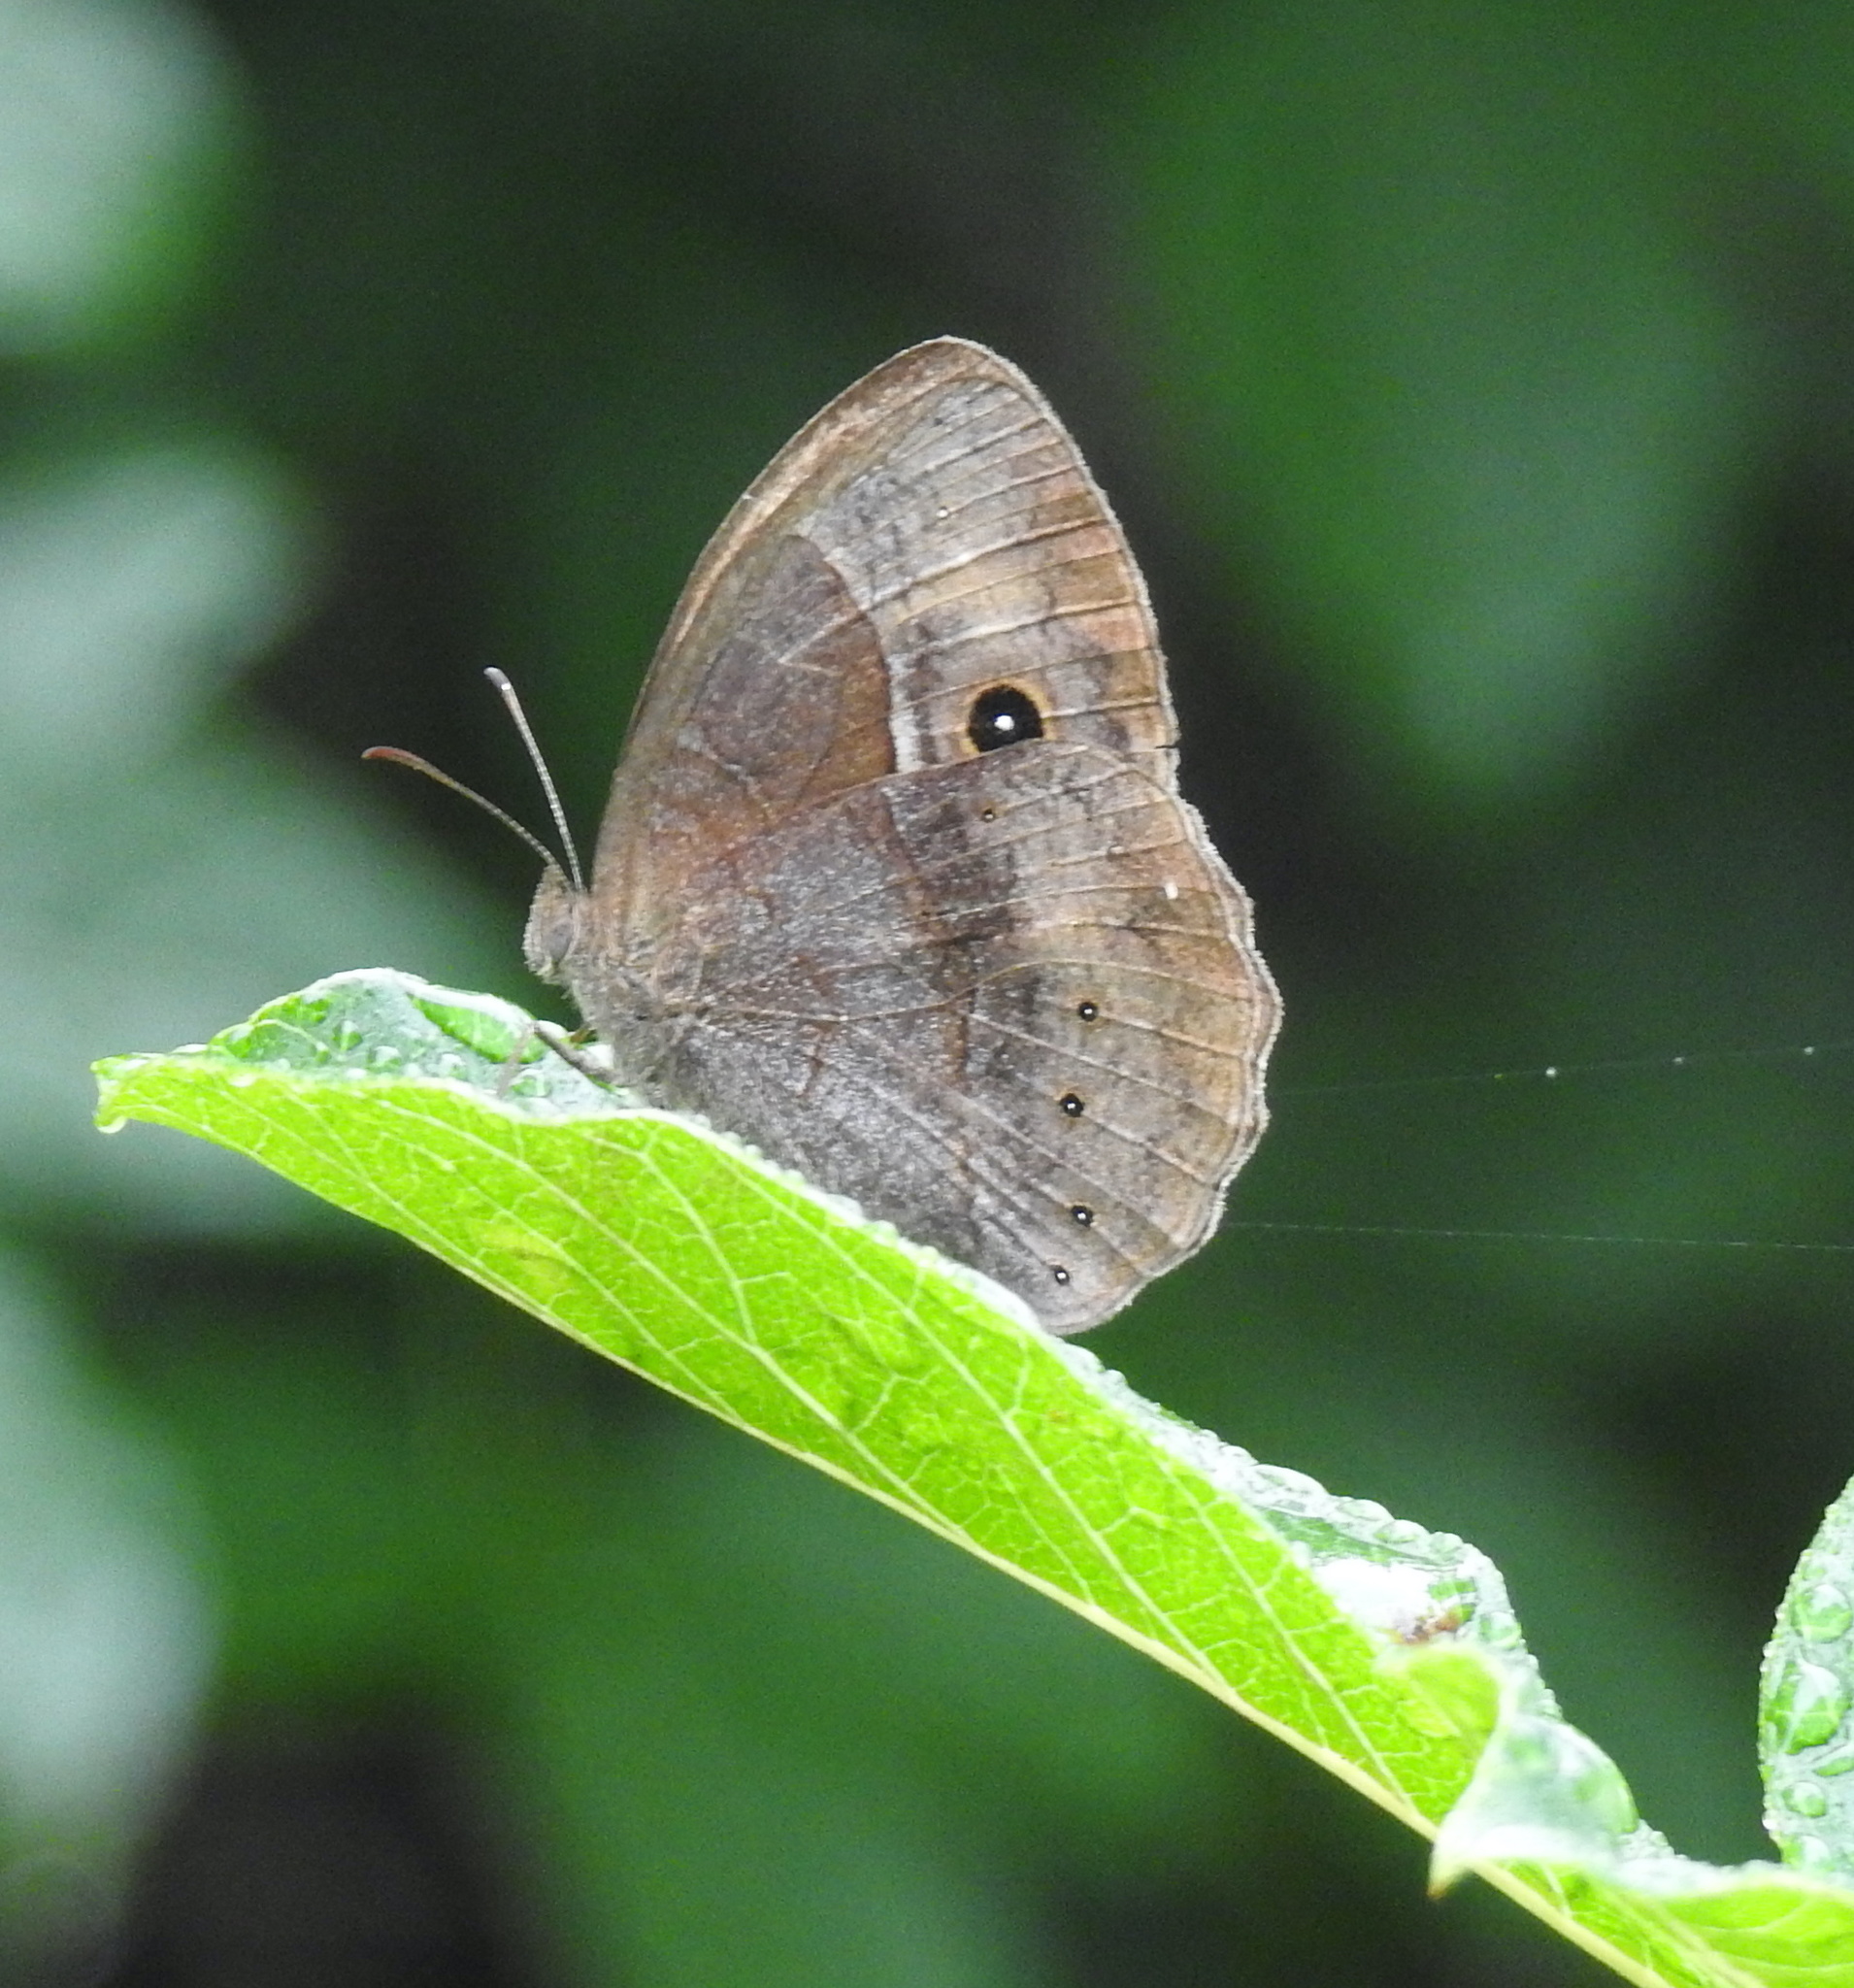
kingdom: Animalia
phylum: Arthropoda
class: Insecta
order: Lepidoptera
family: Nymphalidae
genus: Mycalesis
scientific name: Mycalesis rhacotis
